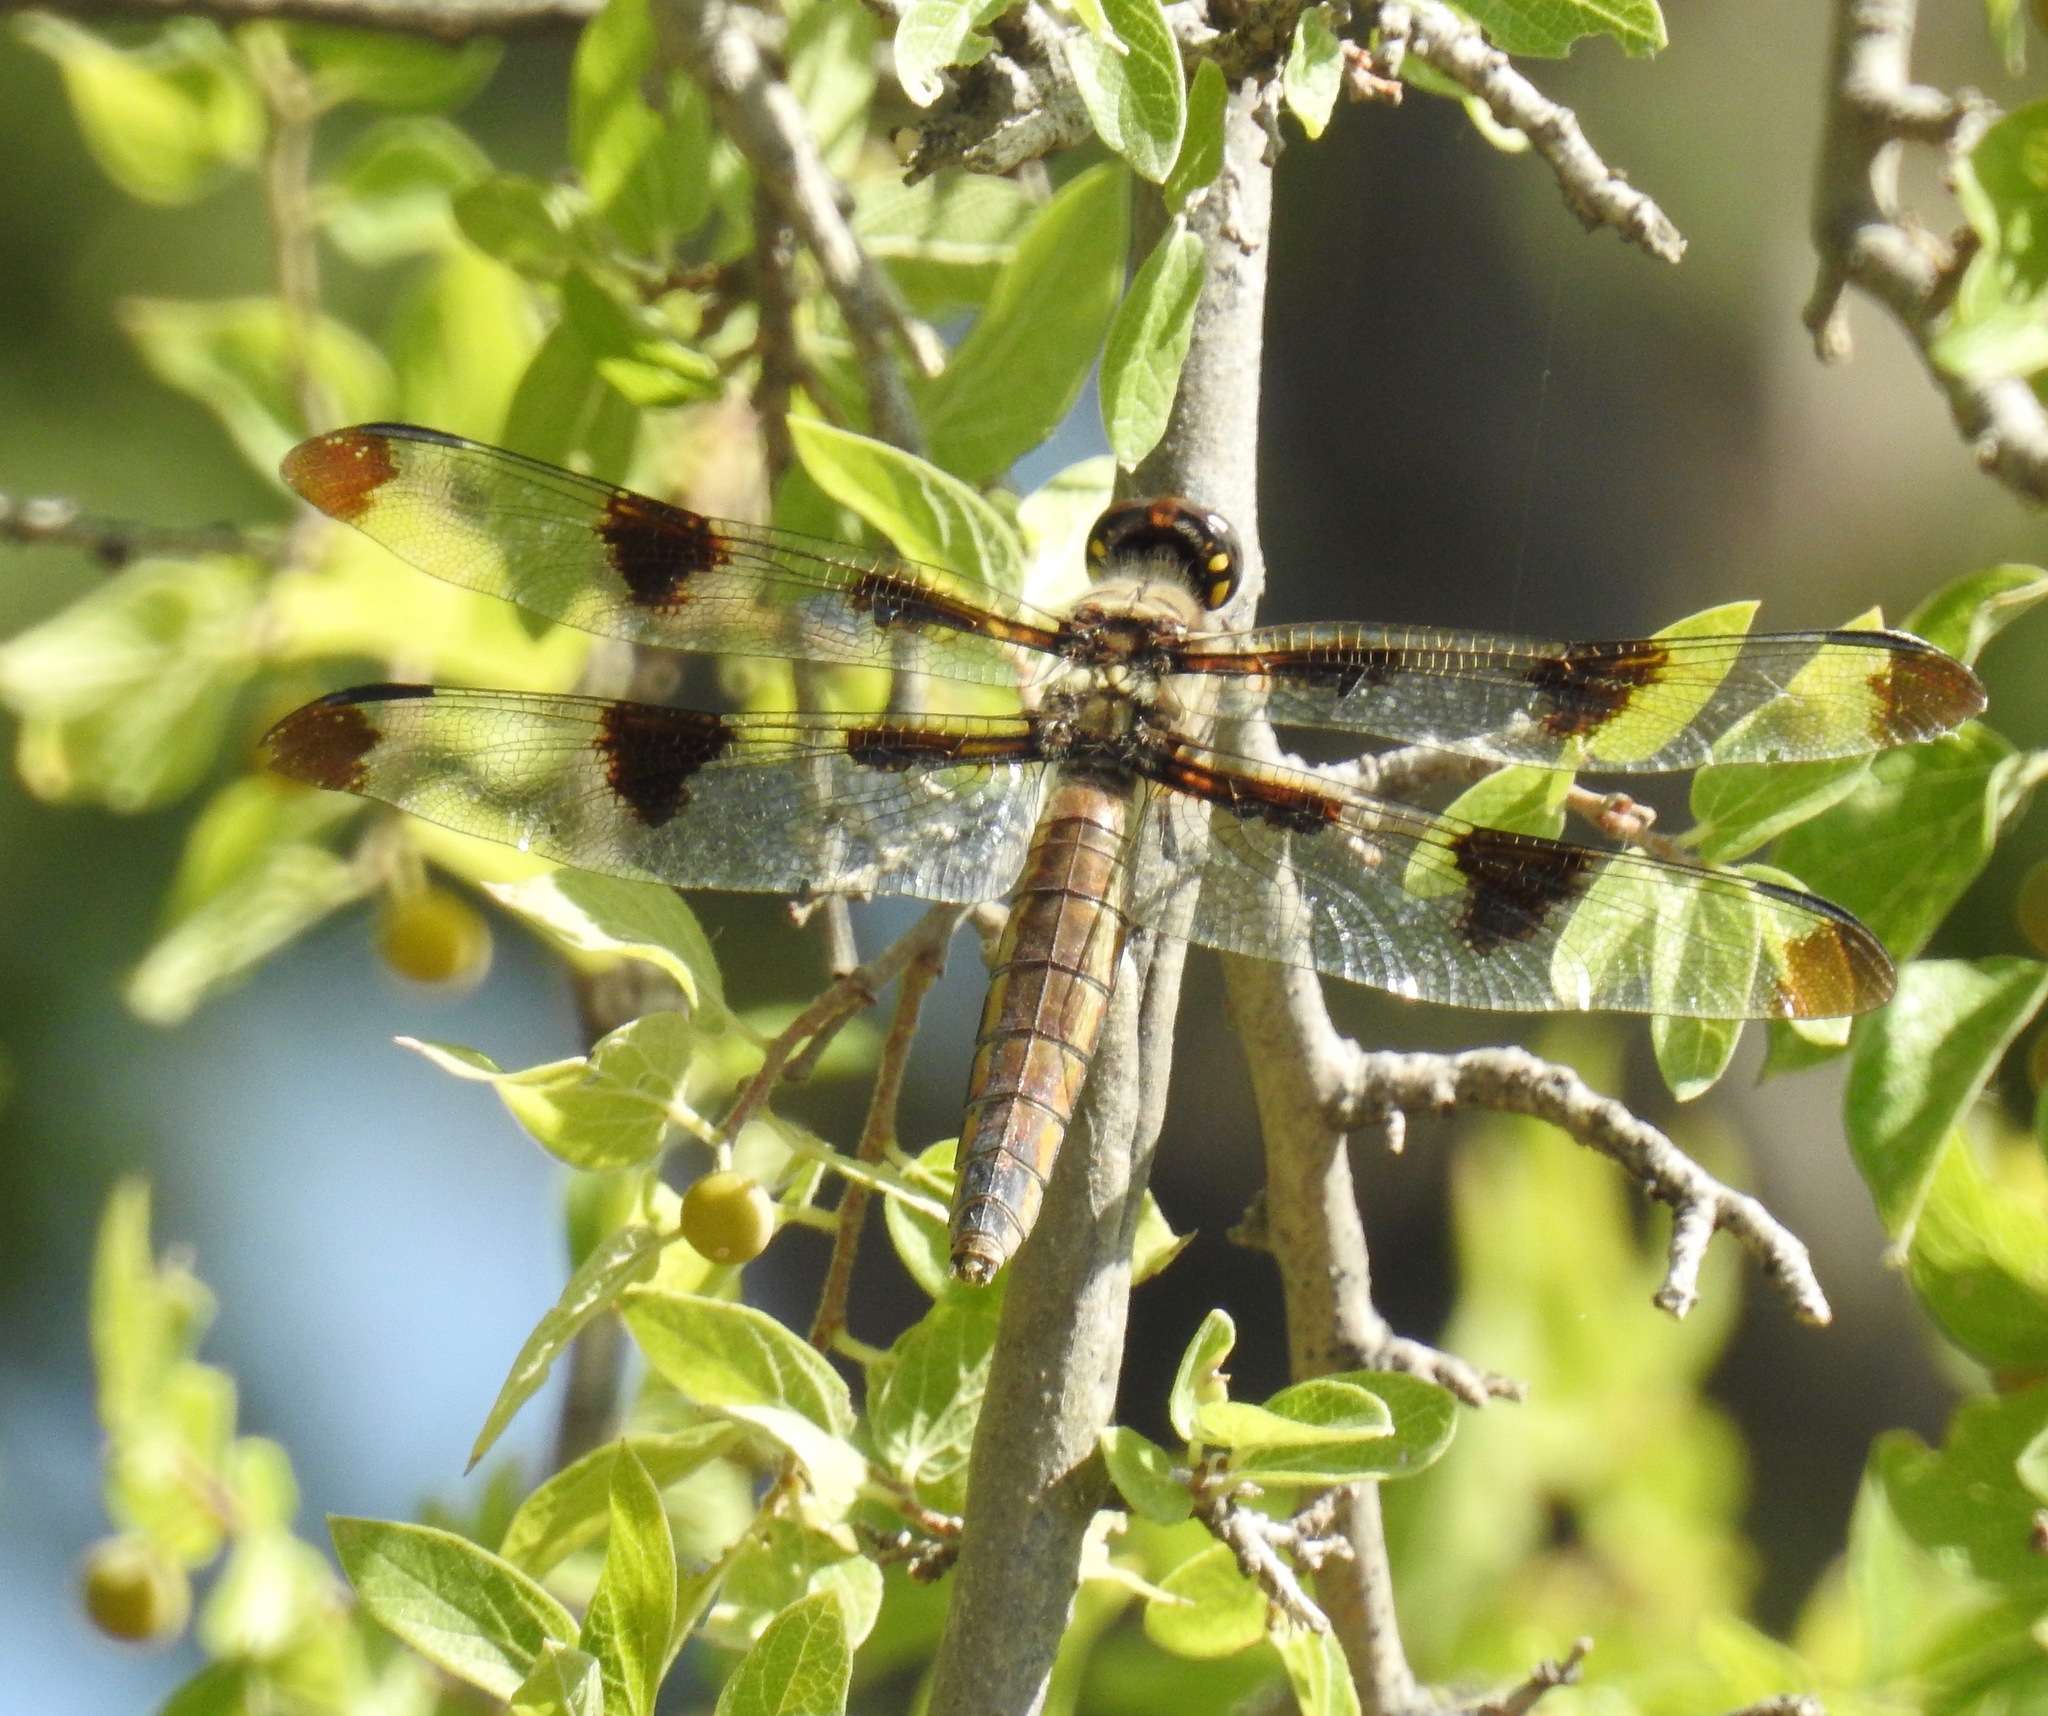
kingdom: Animalia
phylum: Arthropoda
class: Insecta
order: Odonata
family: Libellulidae
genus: Libellula
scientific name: Libellula pulchella
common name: Twelve-spotted skimmer
